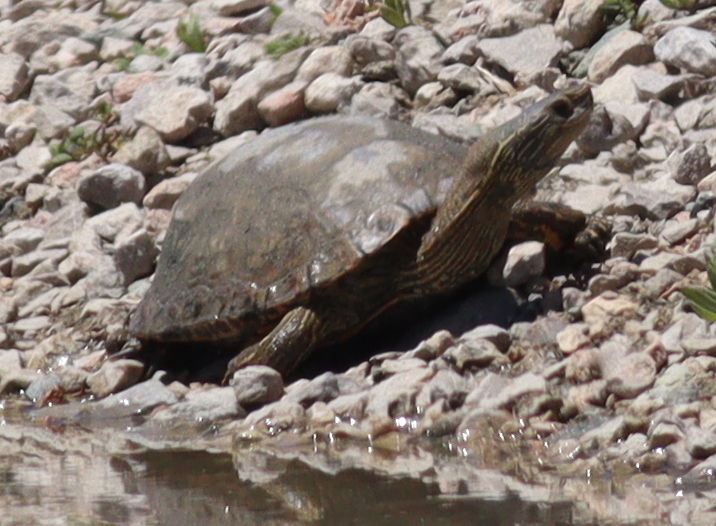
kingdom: Animalia
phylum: Chordata
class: Testudines
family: Geoemydidae
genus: Mauremys
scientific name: Mauremys caspica
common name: Caspian turtle
